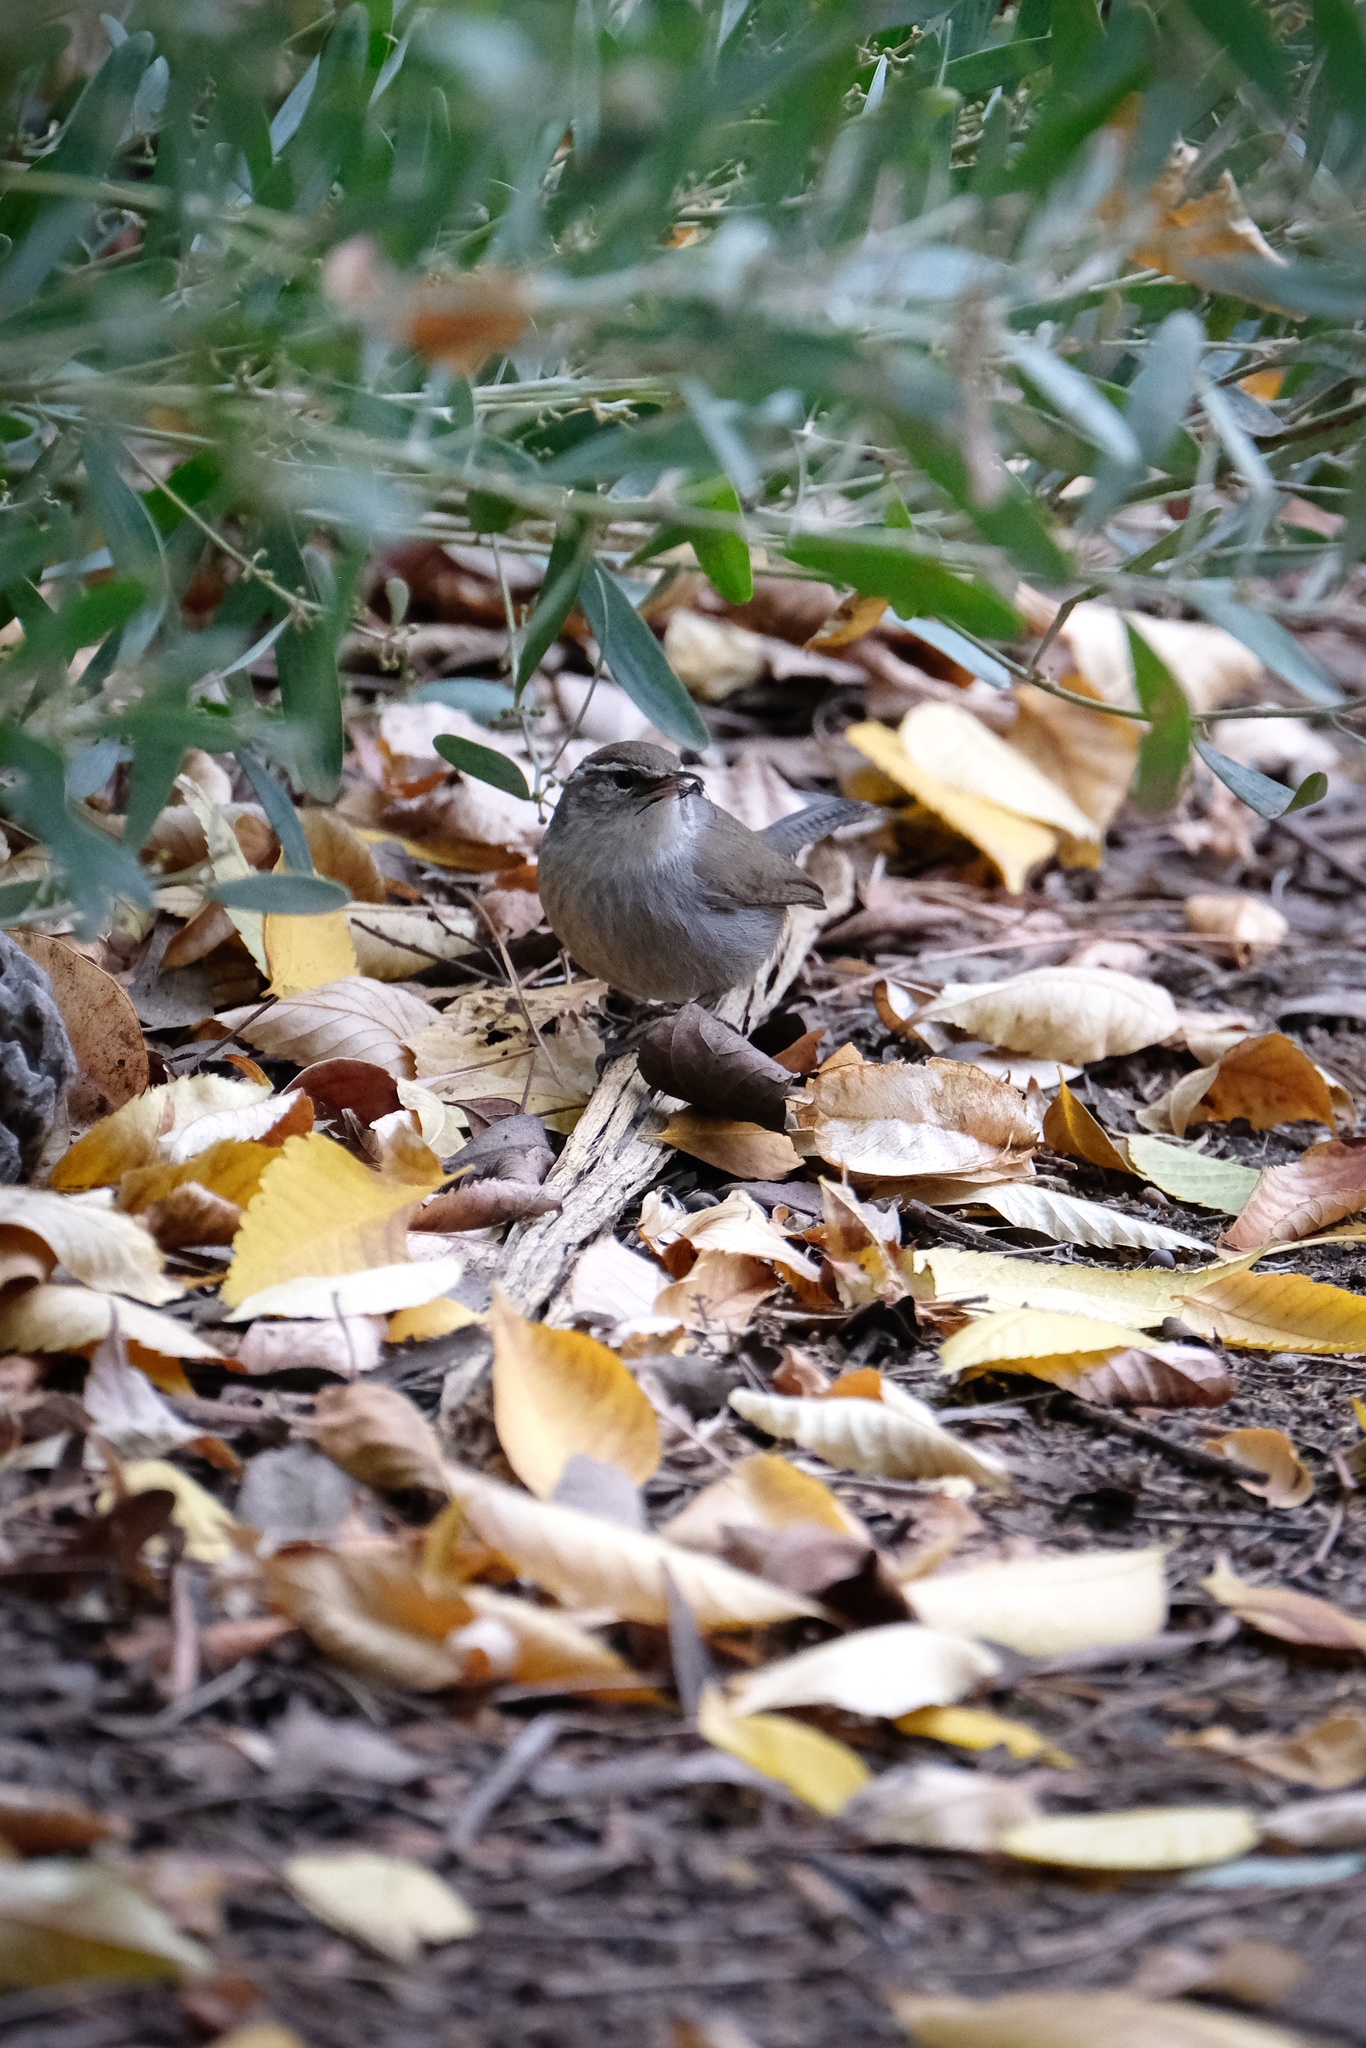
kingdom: Animalia
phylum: Chordata
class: Aves
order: Passeriformes
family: Troglodytidae
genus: Thryomanes
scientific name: Thryomanes bewickii
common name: Bewick's wren
